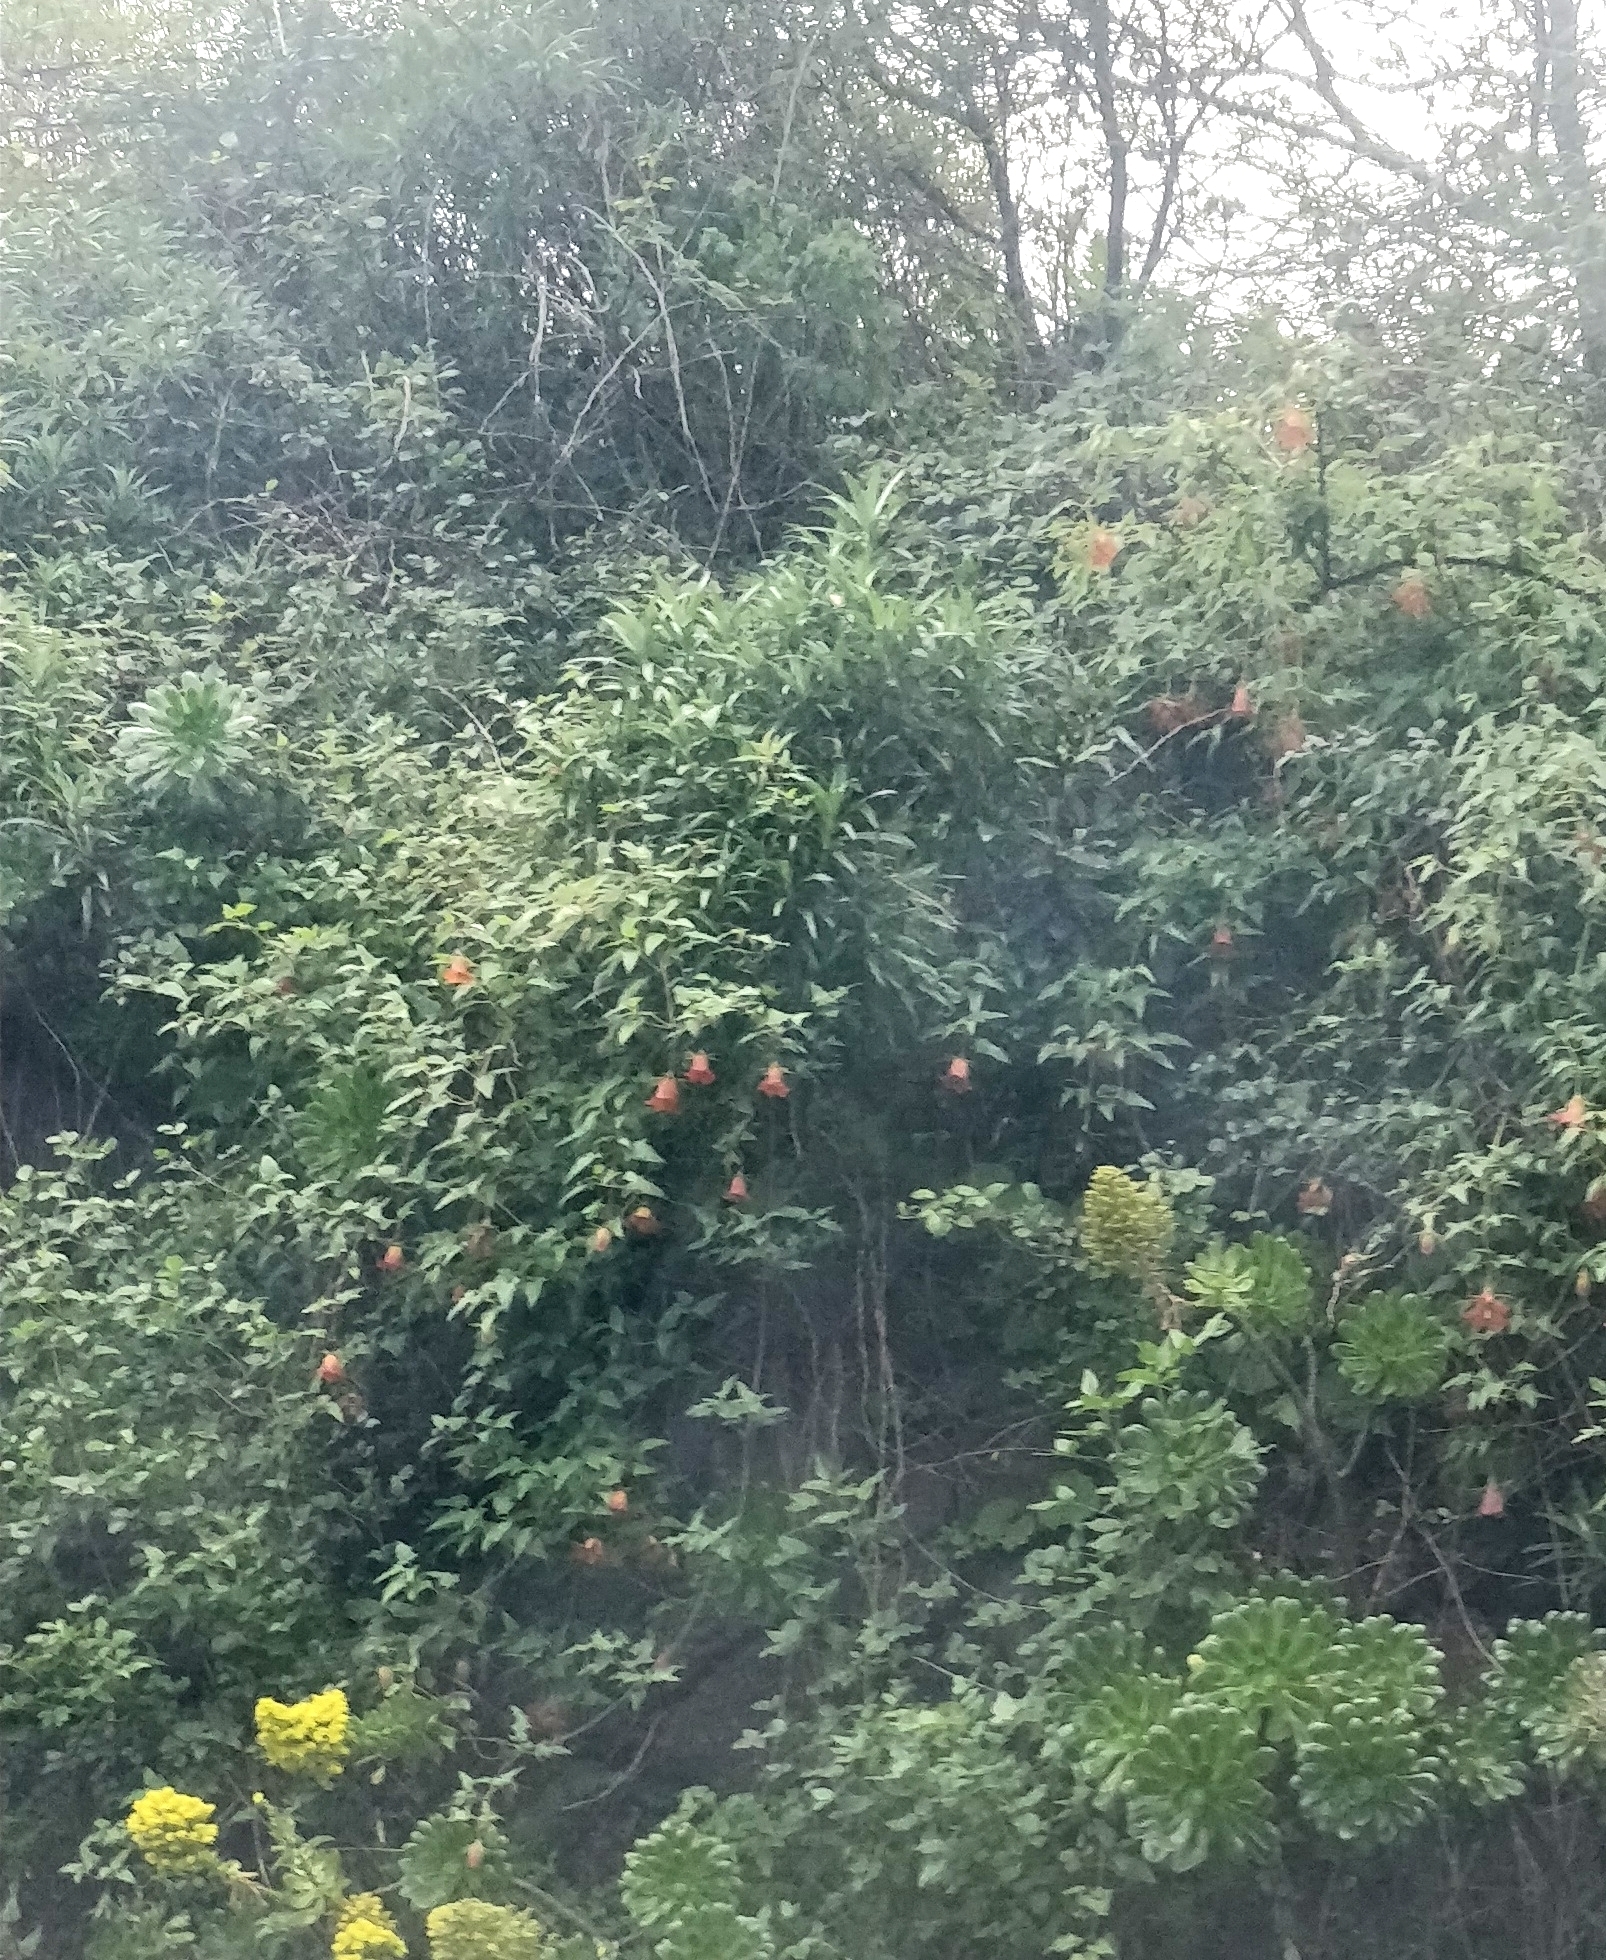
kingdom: Plantae
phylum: Tracheophyta
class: Magnoliopsida
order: Asterales
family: Campanulaceae
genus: Canarina
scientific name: Canarina canariensis
